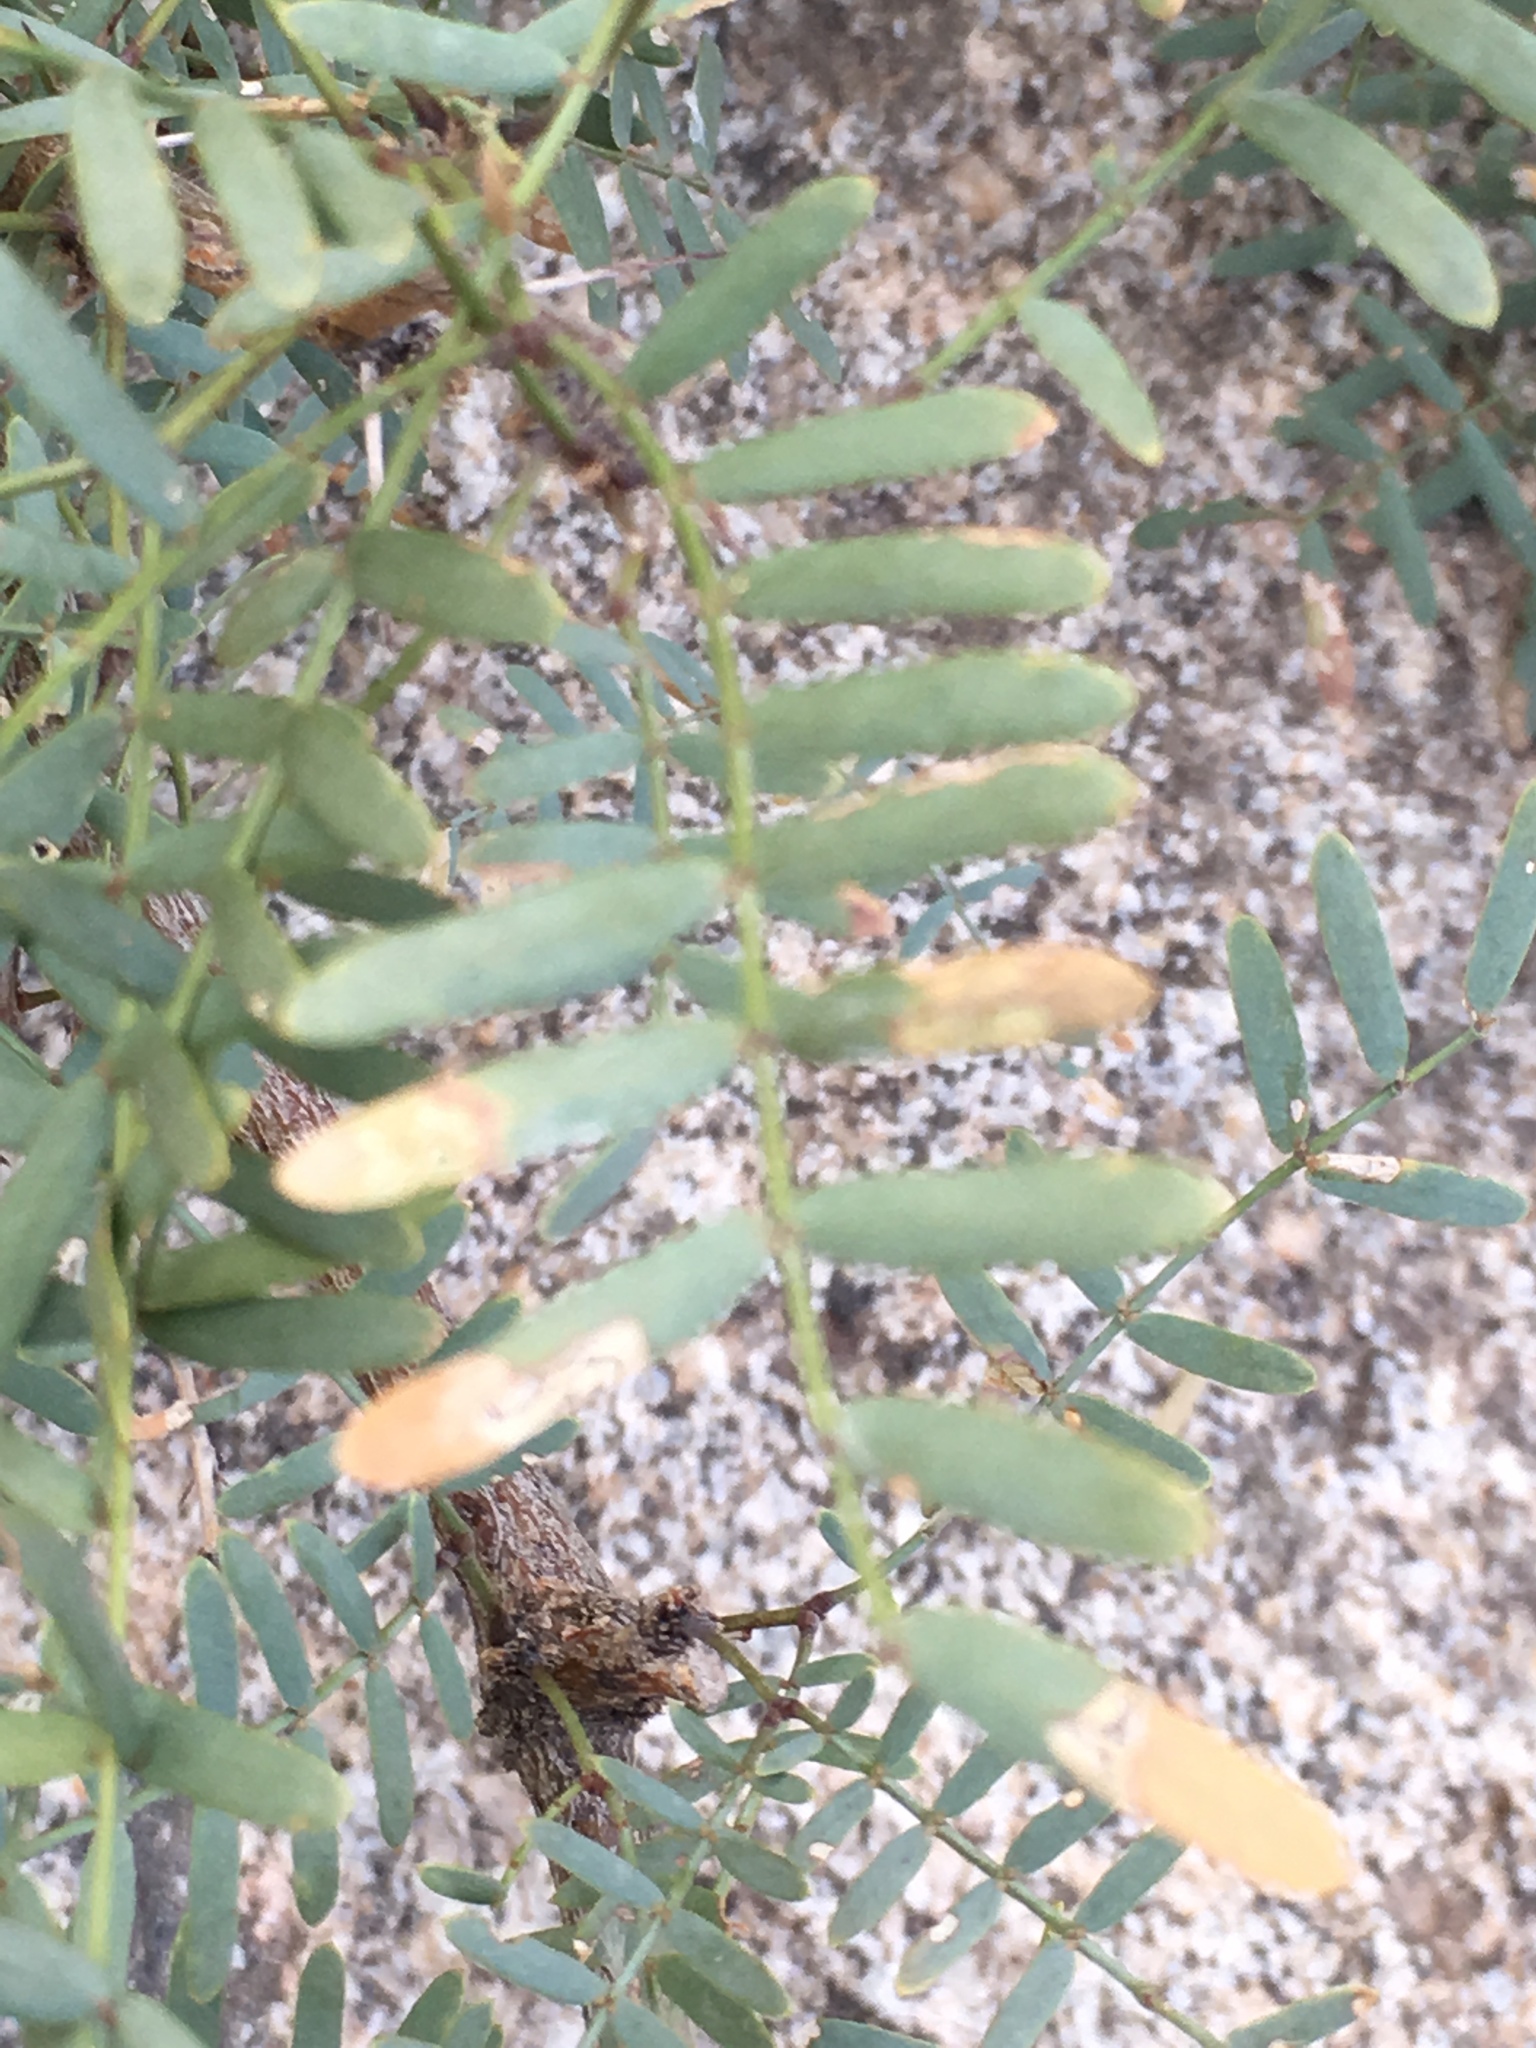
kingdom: Plantae
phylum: Tracheophyta
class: Magnoliopsida
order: Fabales
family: Fabaceae
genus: Prosopis
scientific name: Prosopis pubescens
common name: Screw-bean
